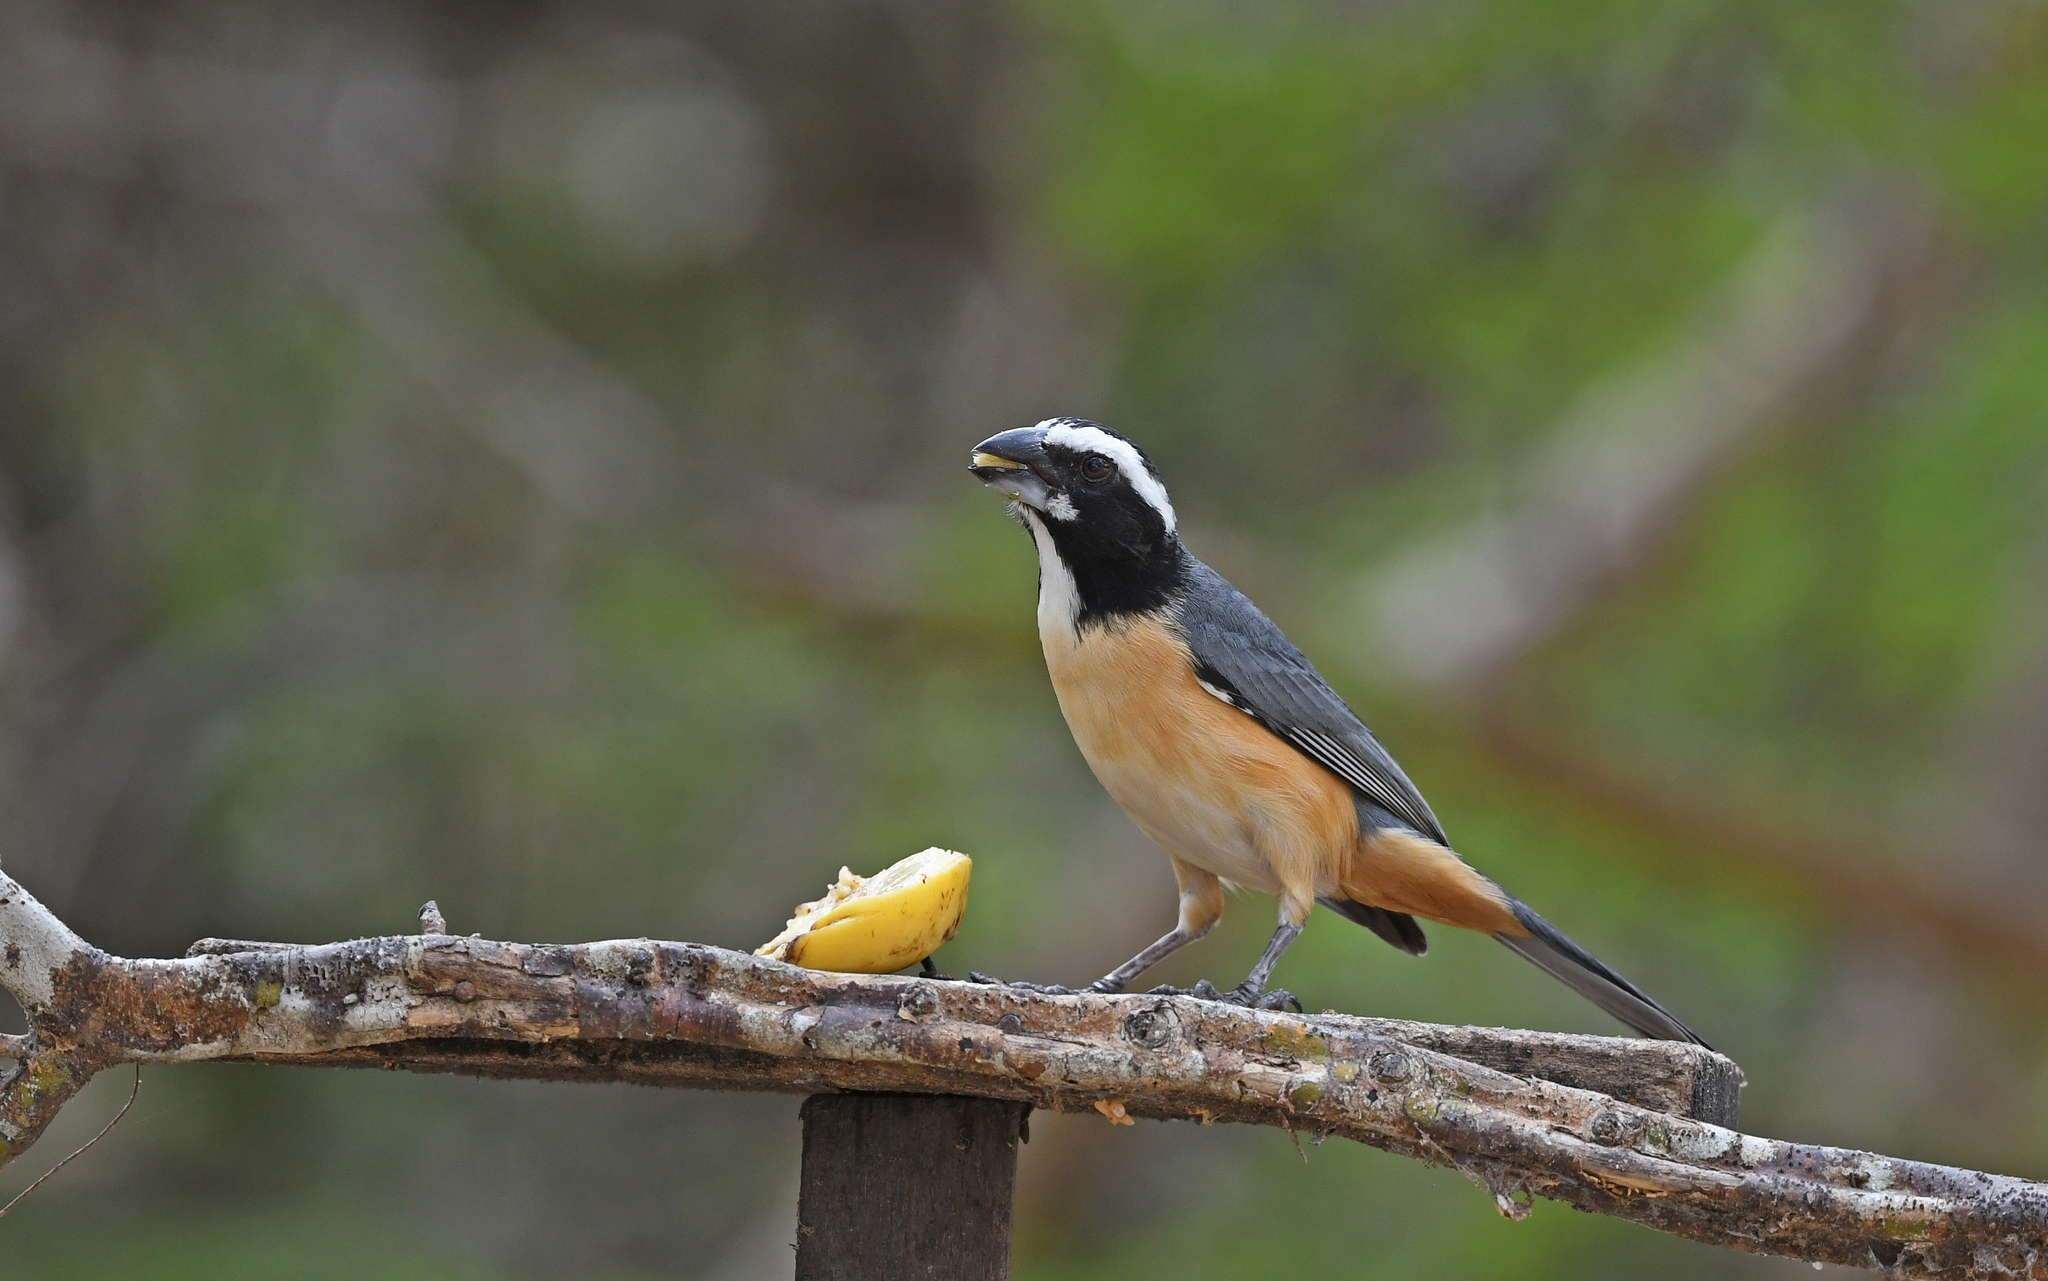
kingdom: Animalia
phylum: Chordata
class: Aves
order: Passeriformes
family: Thraupidae
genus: Saltator
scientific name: Saltator orenocensis
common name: Orinoco saltator
